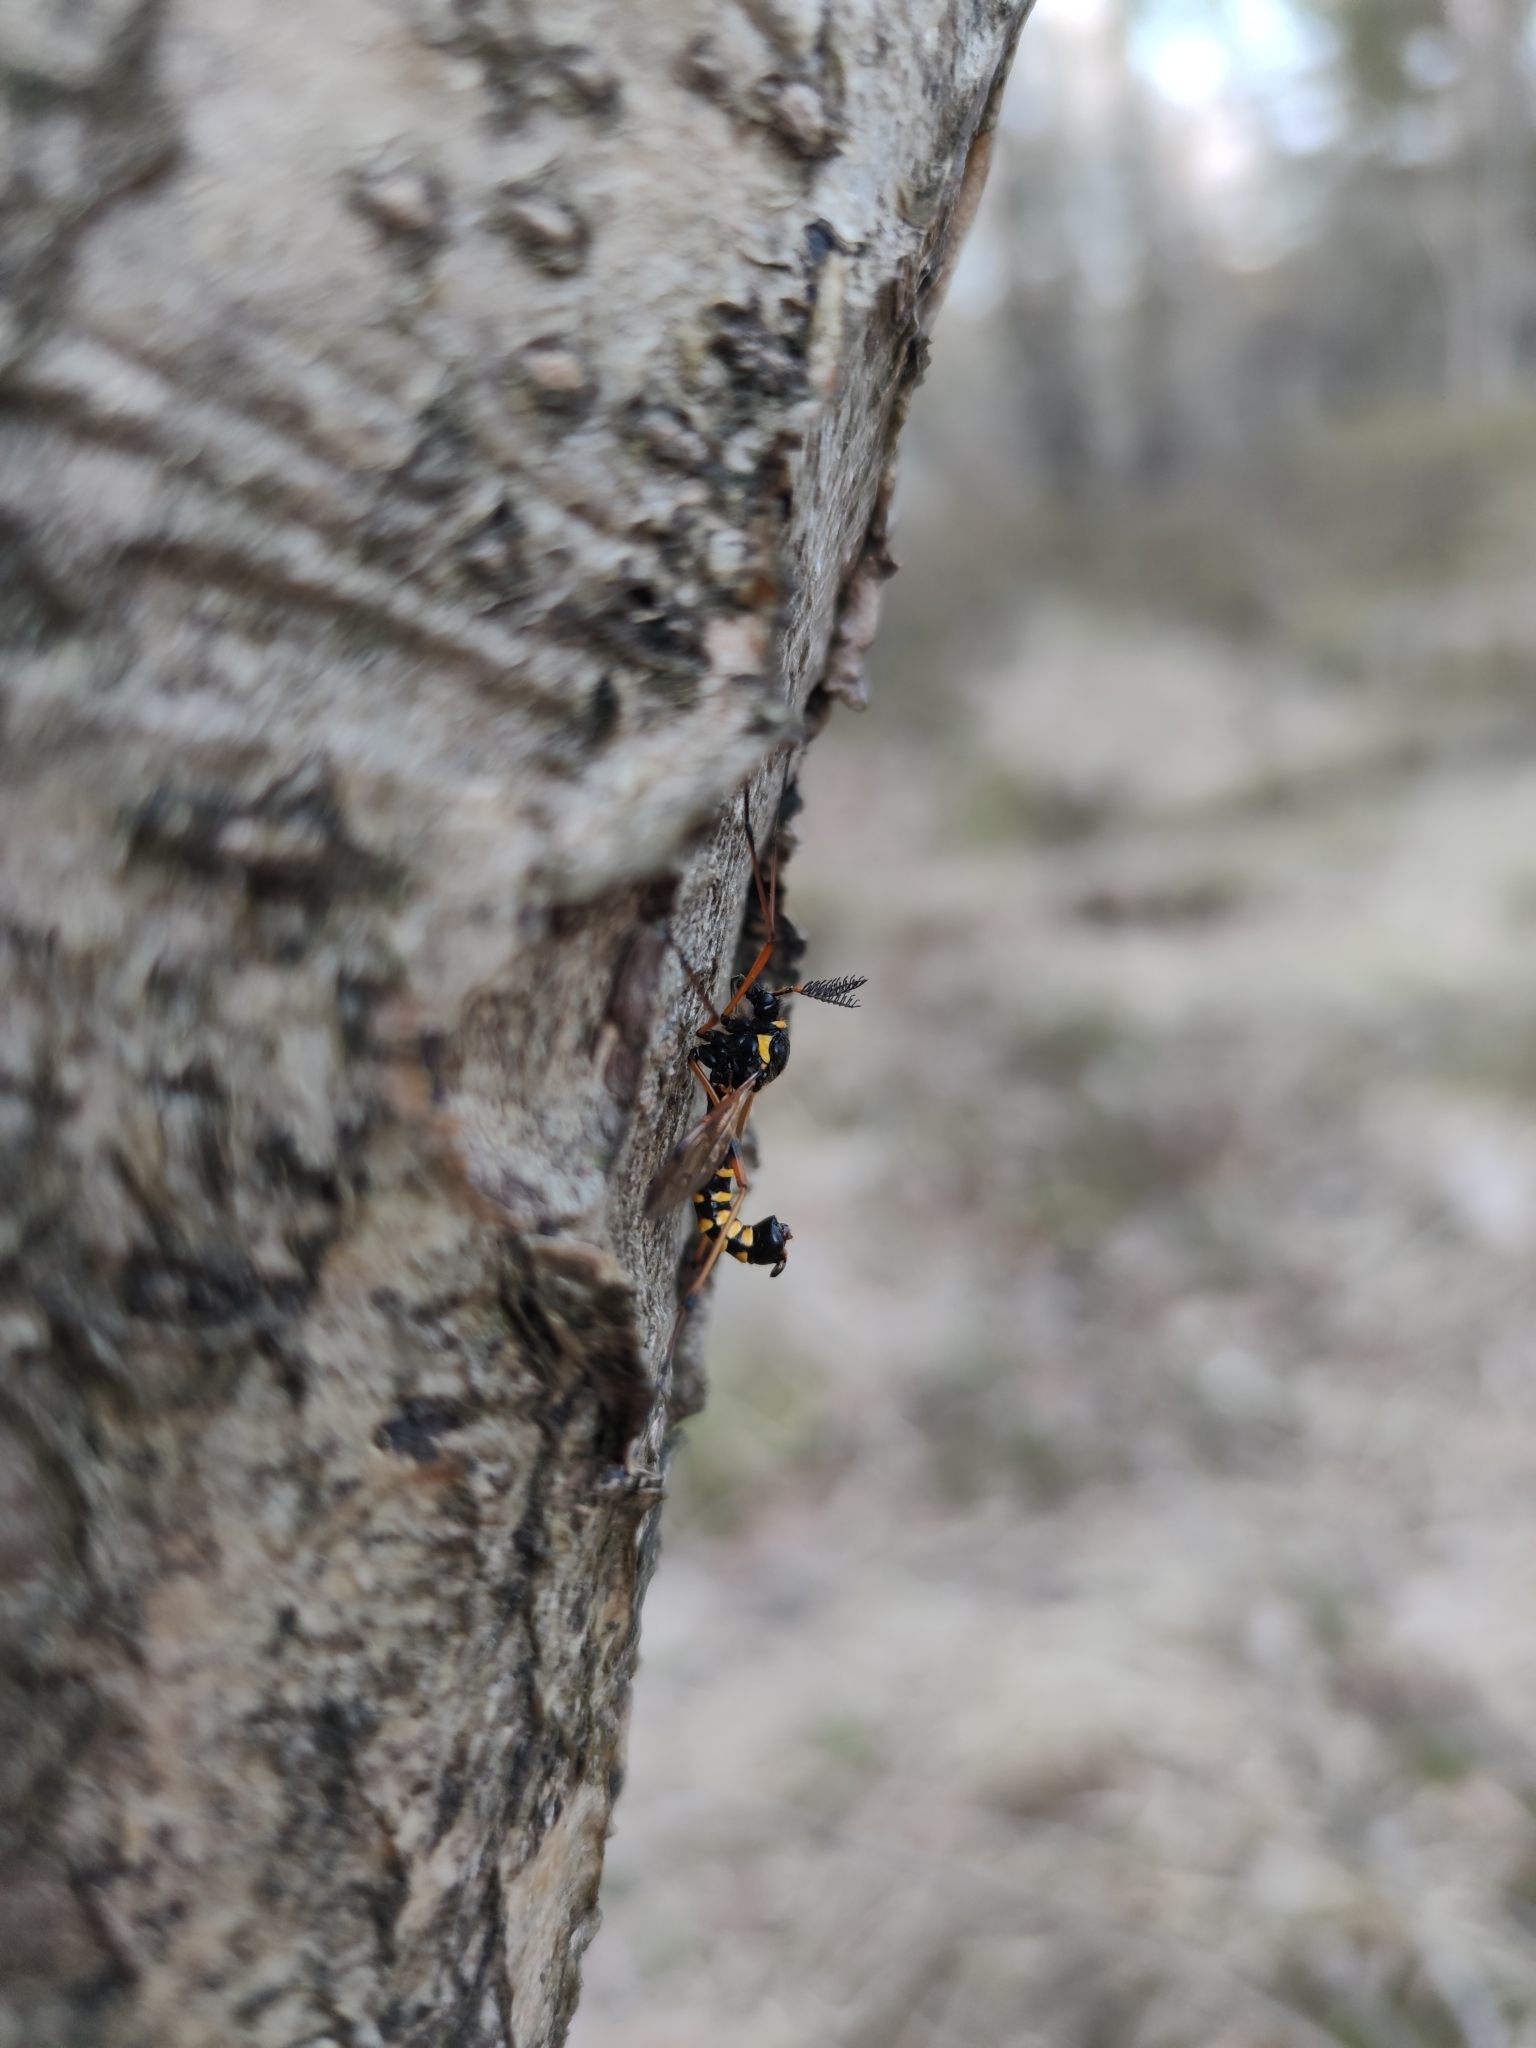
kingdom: Animalia
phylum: Arthropoda
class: Insecta
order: Diptera
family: Tipulidae
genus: Ctenophora
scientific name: Ctenophora flaveolata
